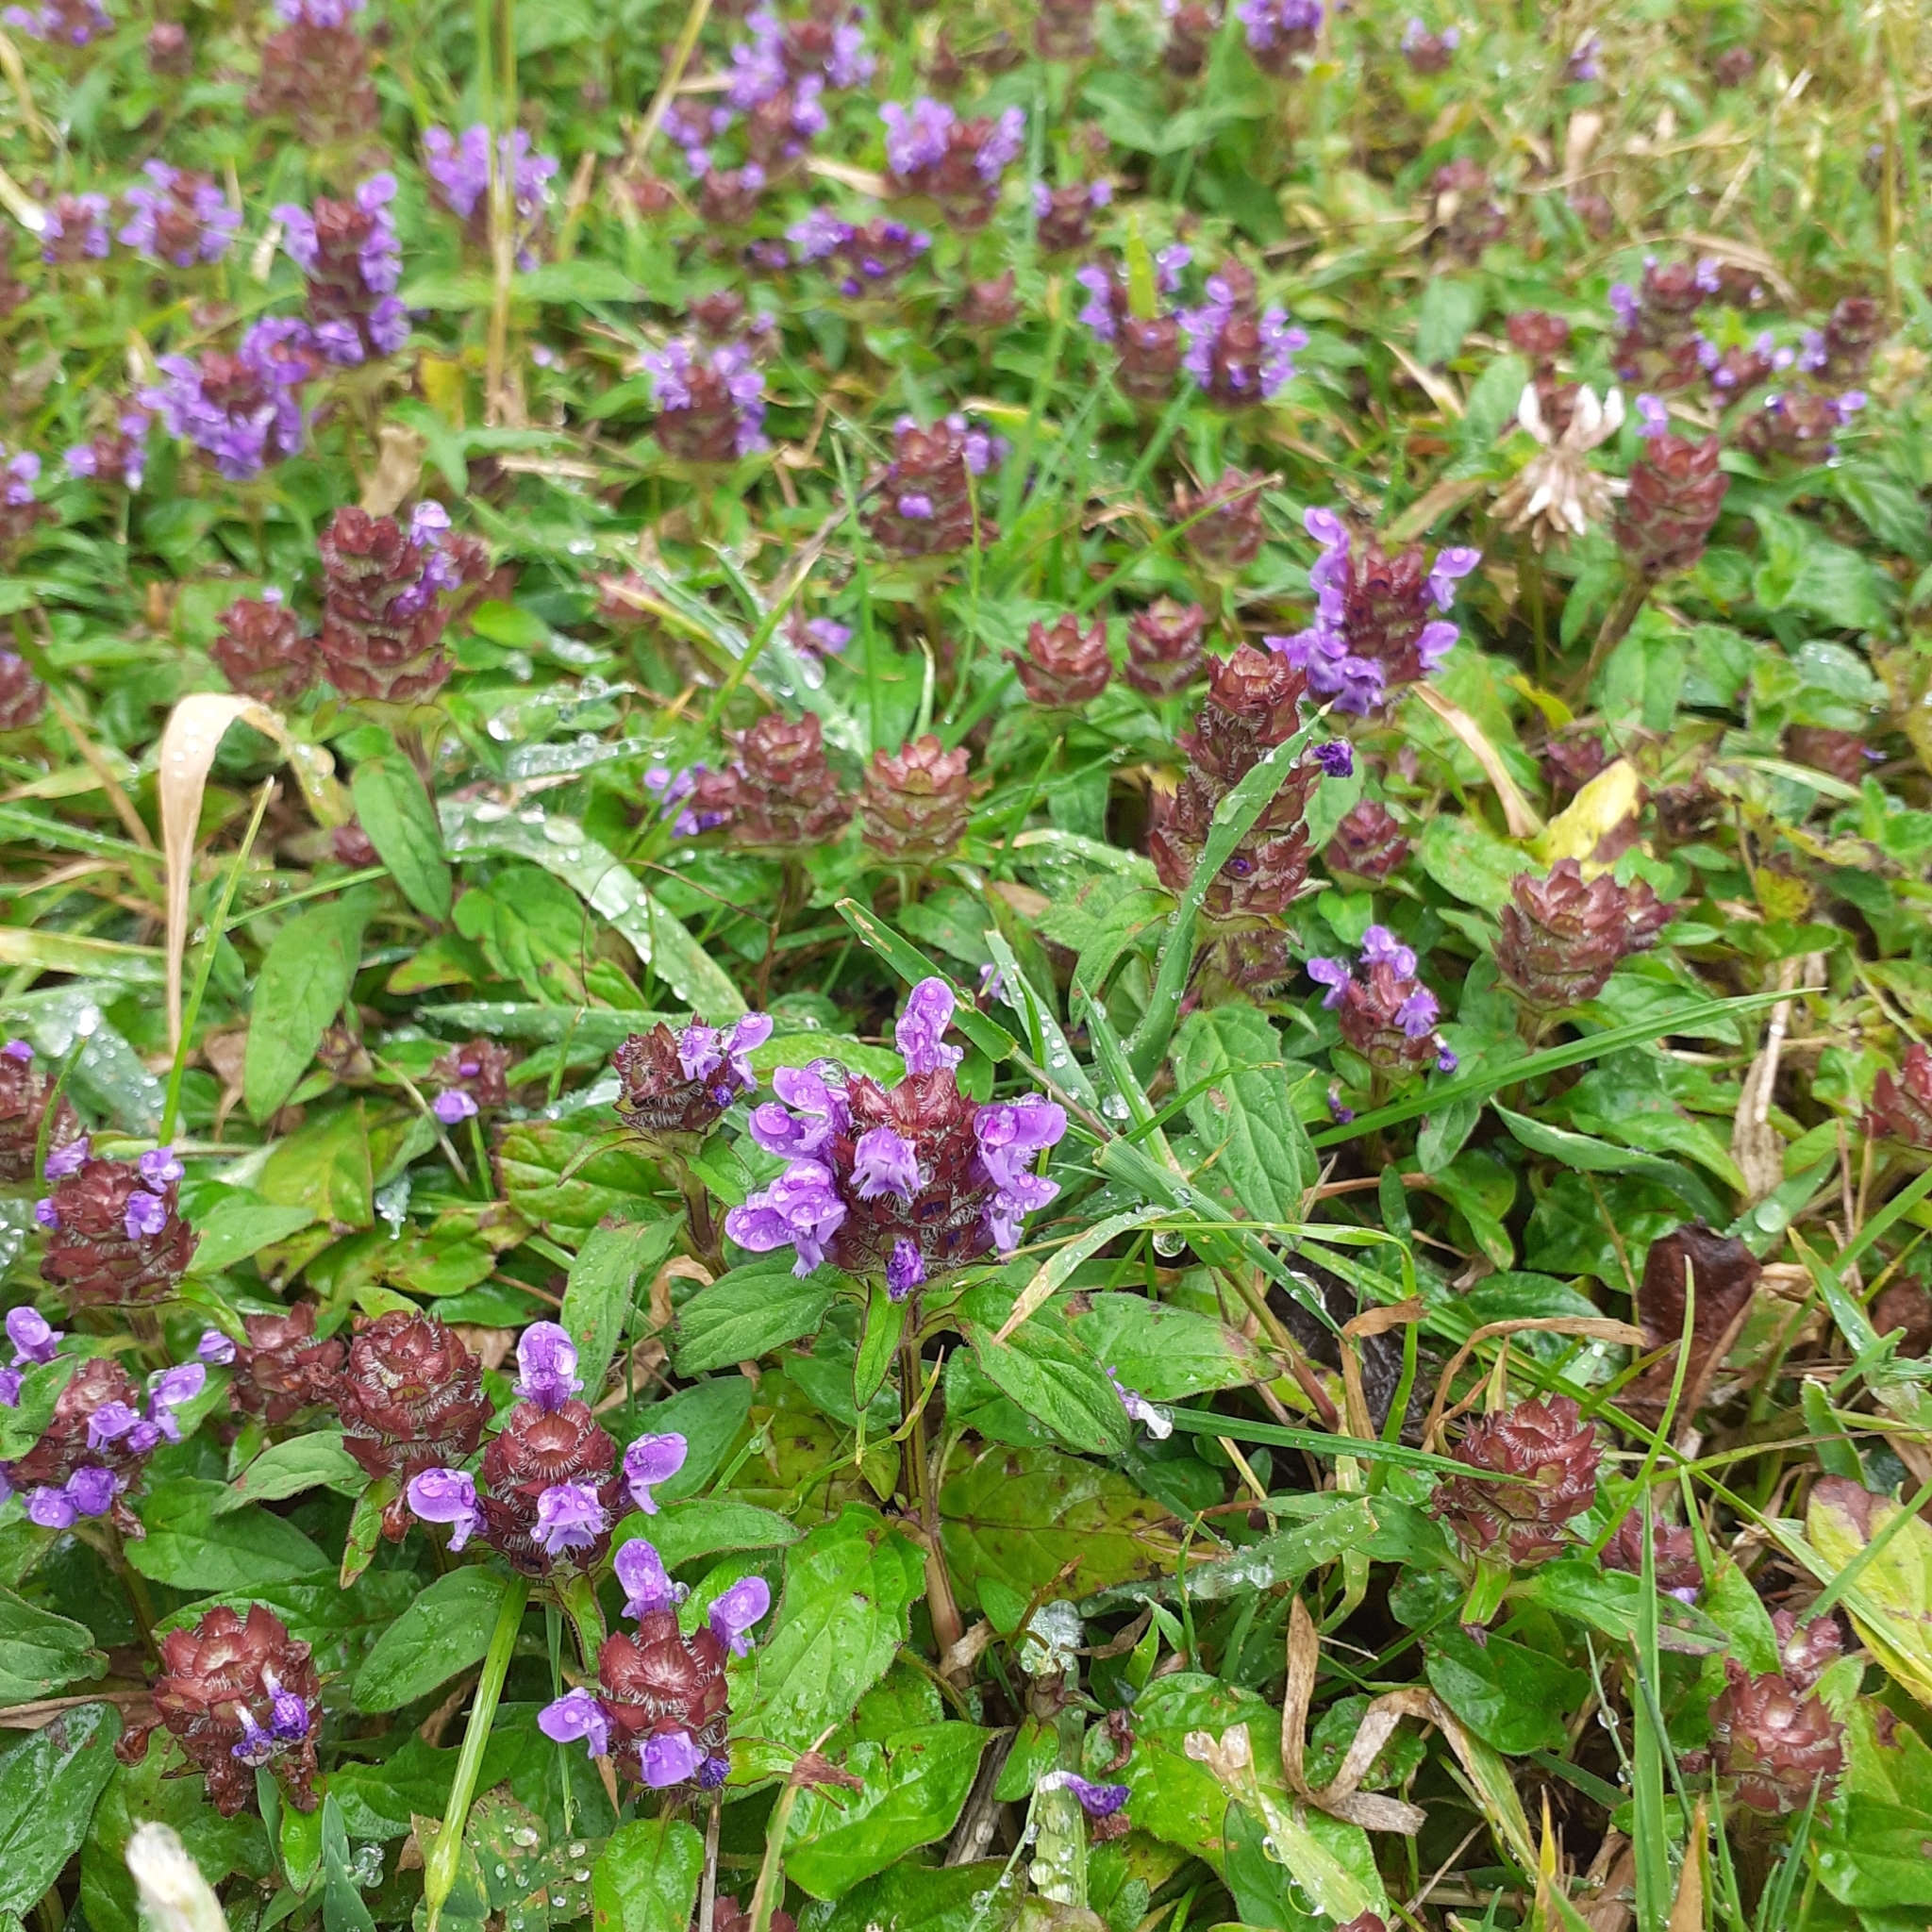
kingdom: Plantae
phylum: Tracheophyta
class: Magnoliopsida
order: Lamiales
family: Lamiaceae
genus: Prunella
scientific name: Prunella vulgaris
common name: Heal-all
